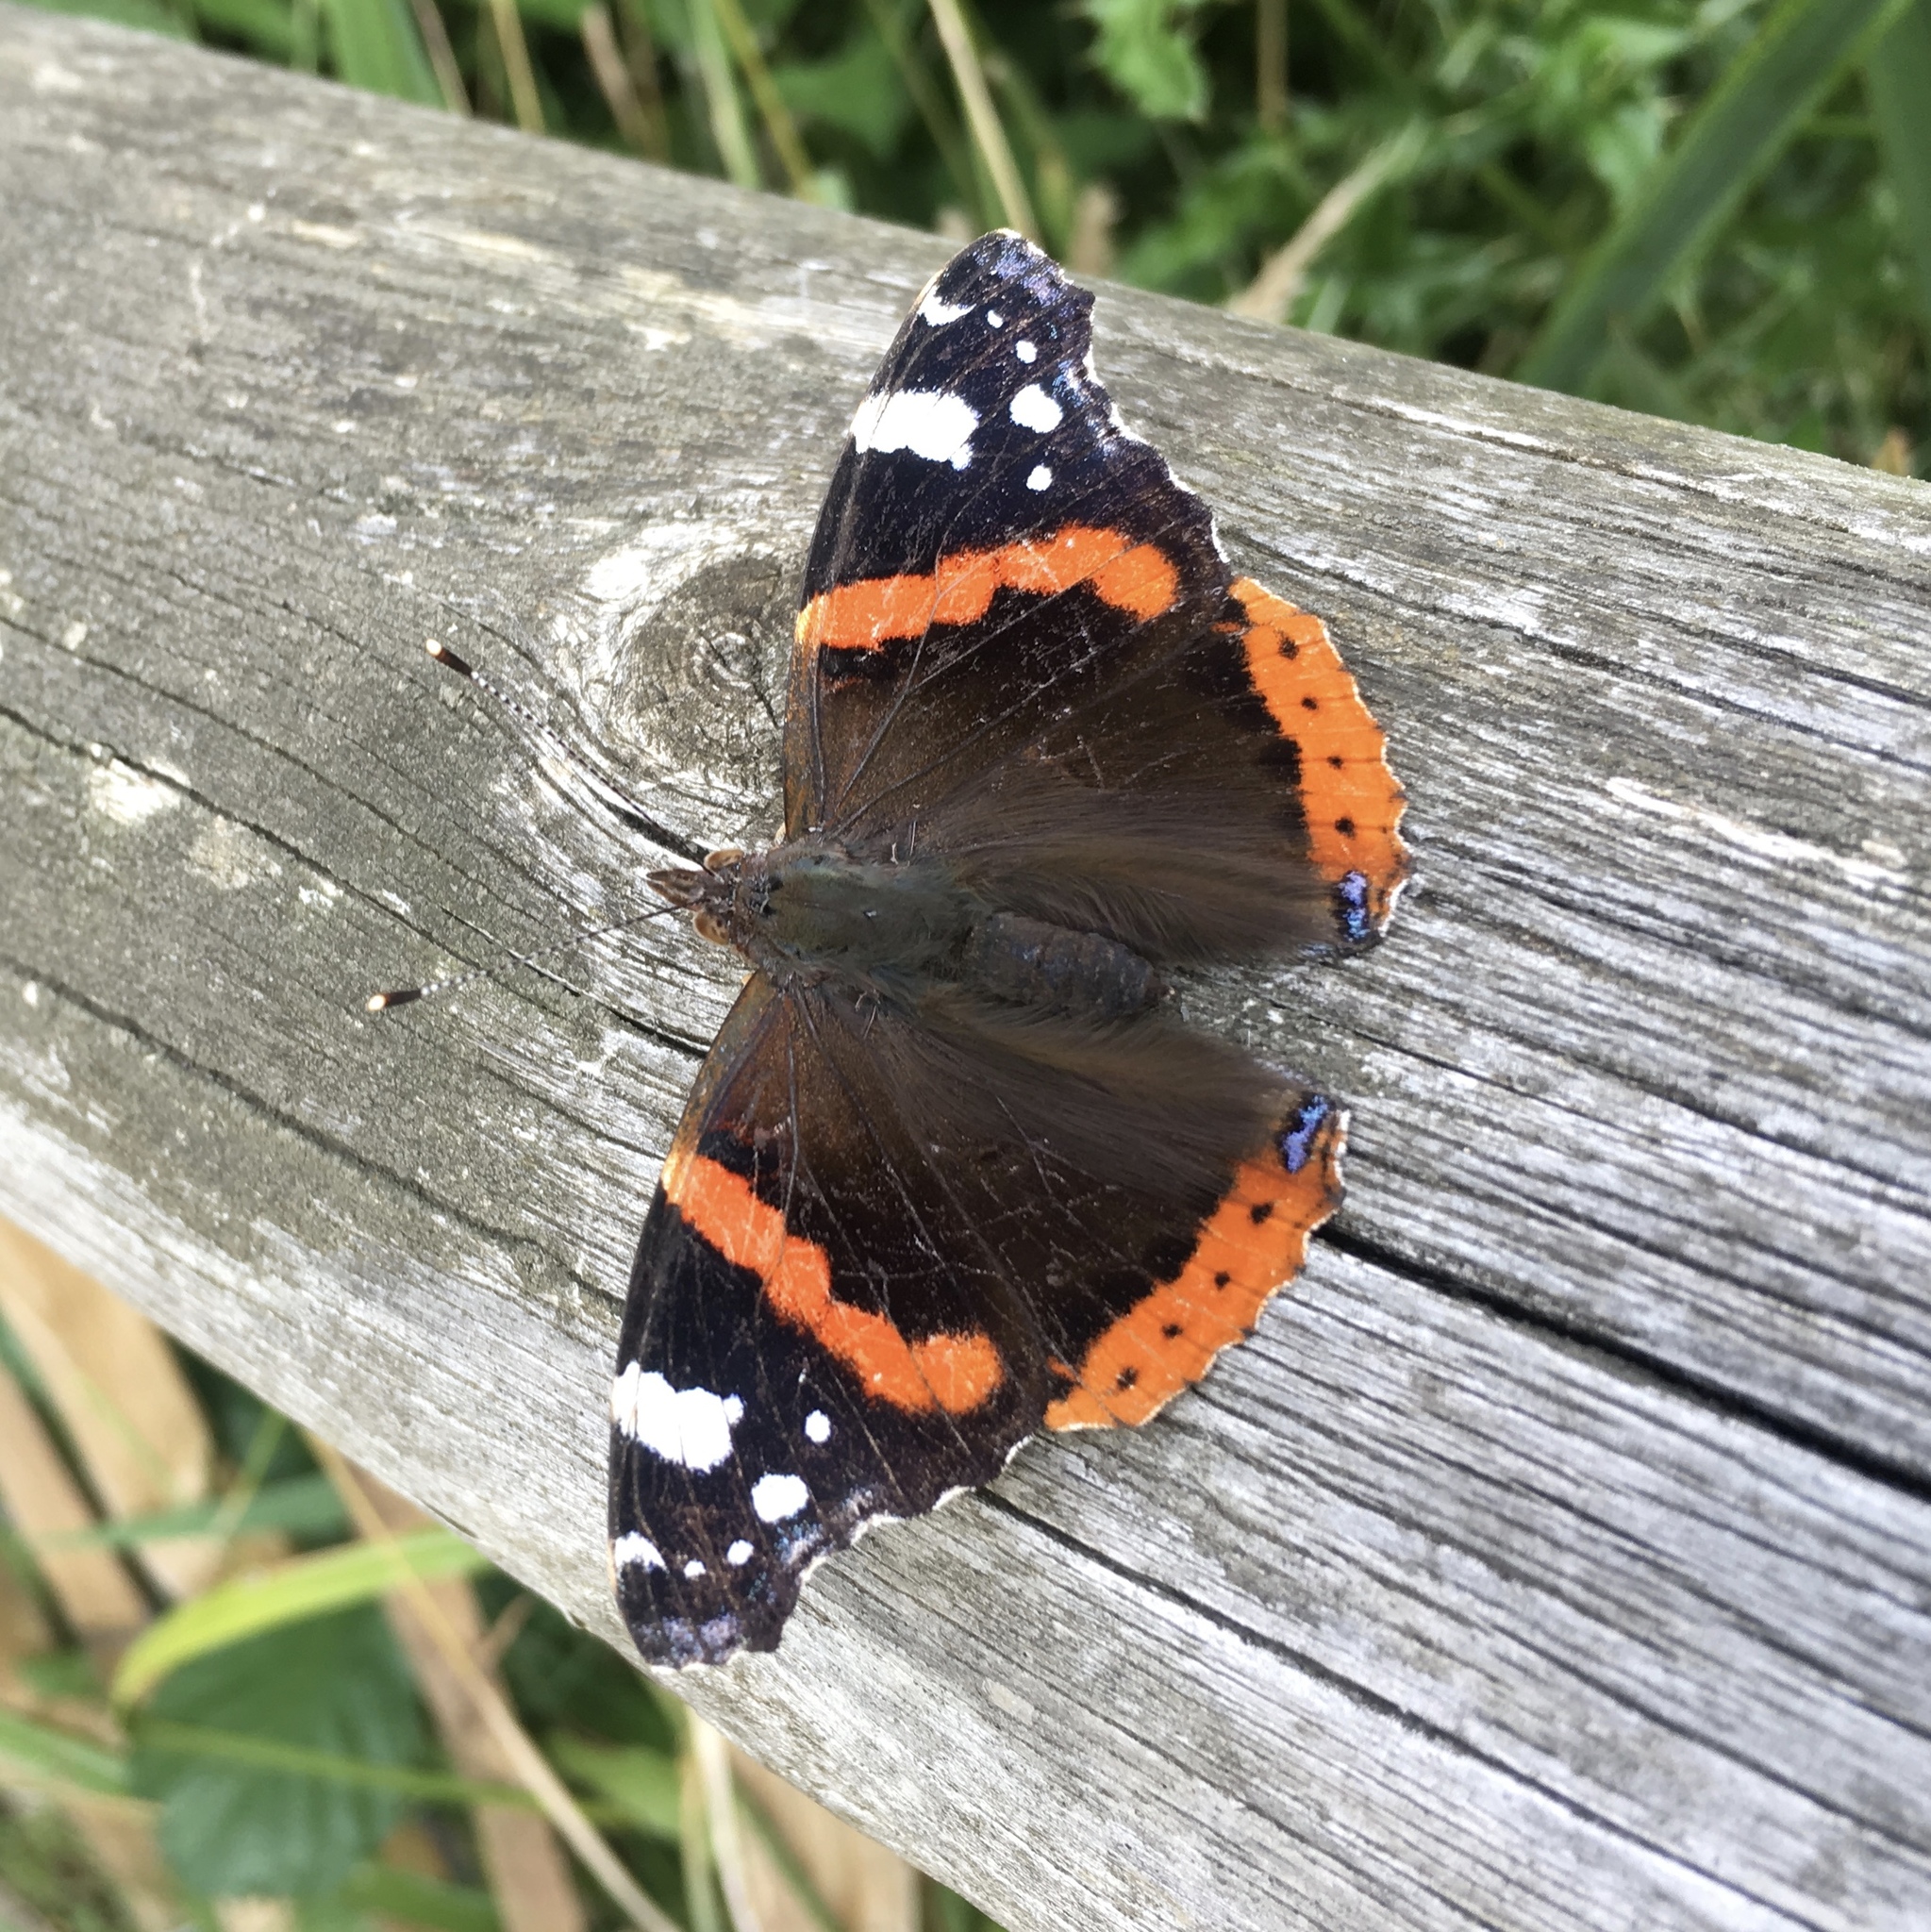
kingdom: Animalia
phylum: Arthropoda
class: Insecta
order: Lepidoptera
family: Nymphalidae
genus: Vanessa
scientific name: Vanessa atalanta
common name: Red admiral
